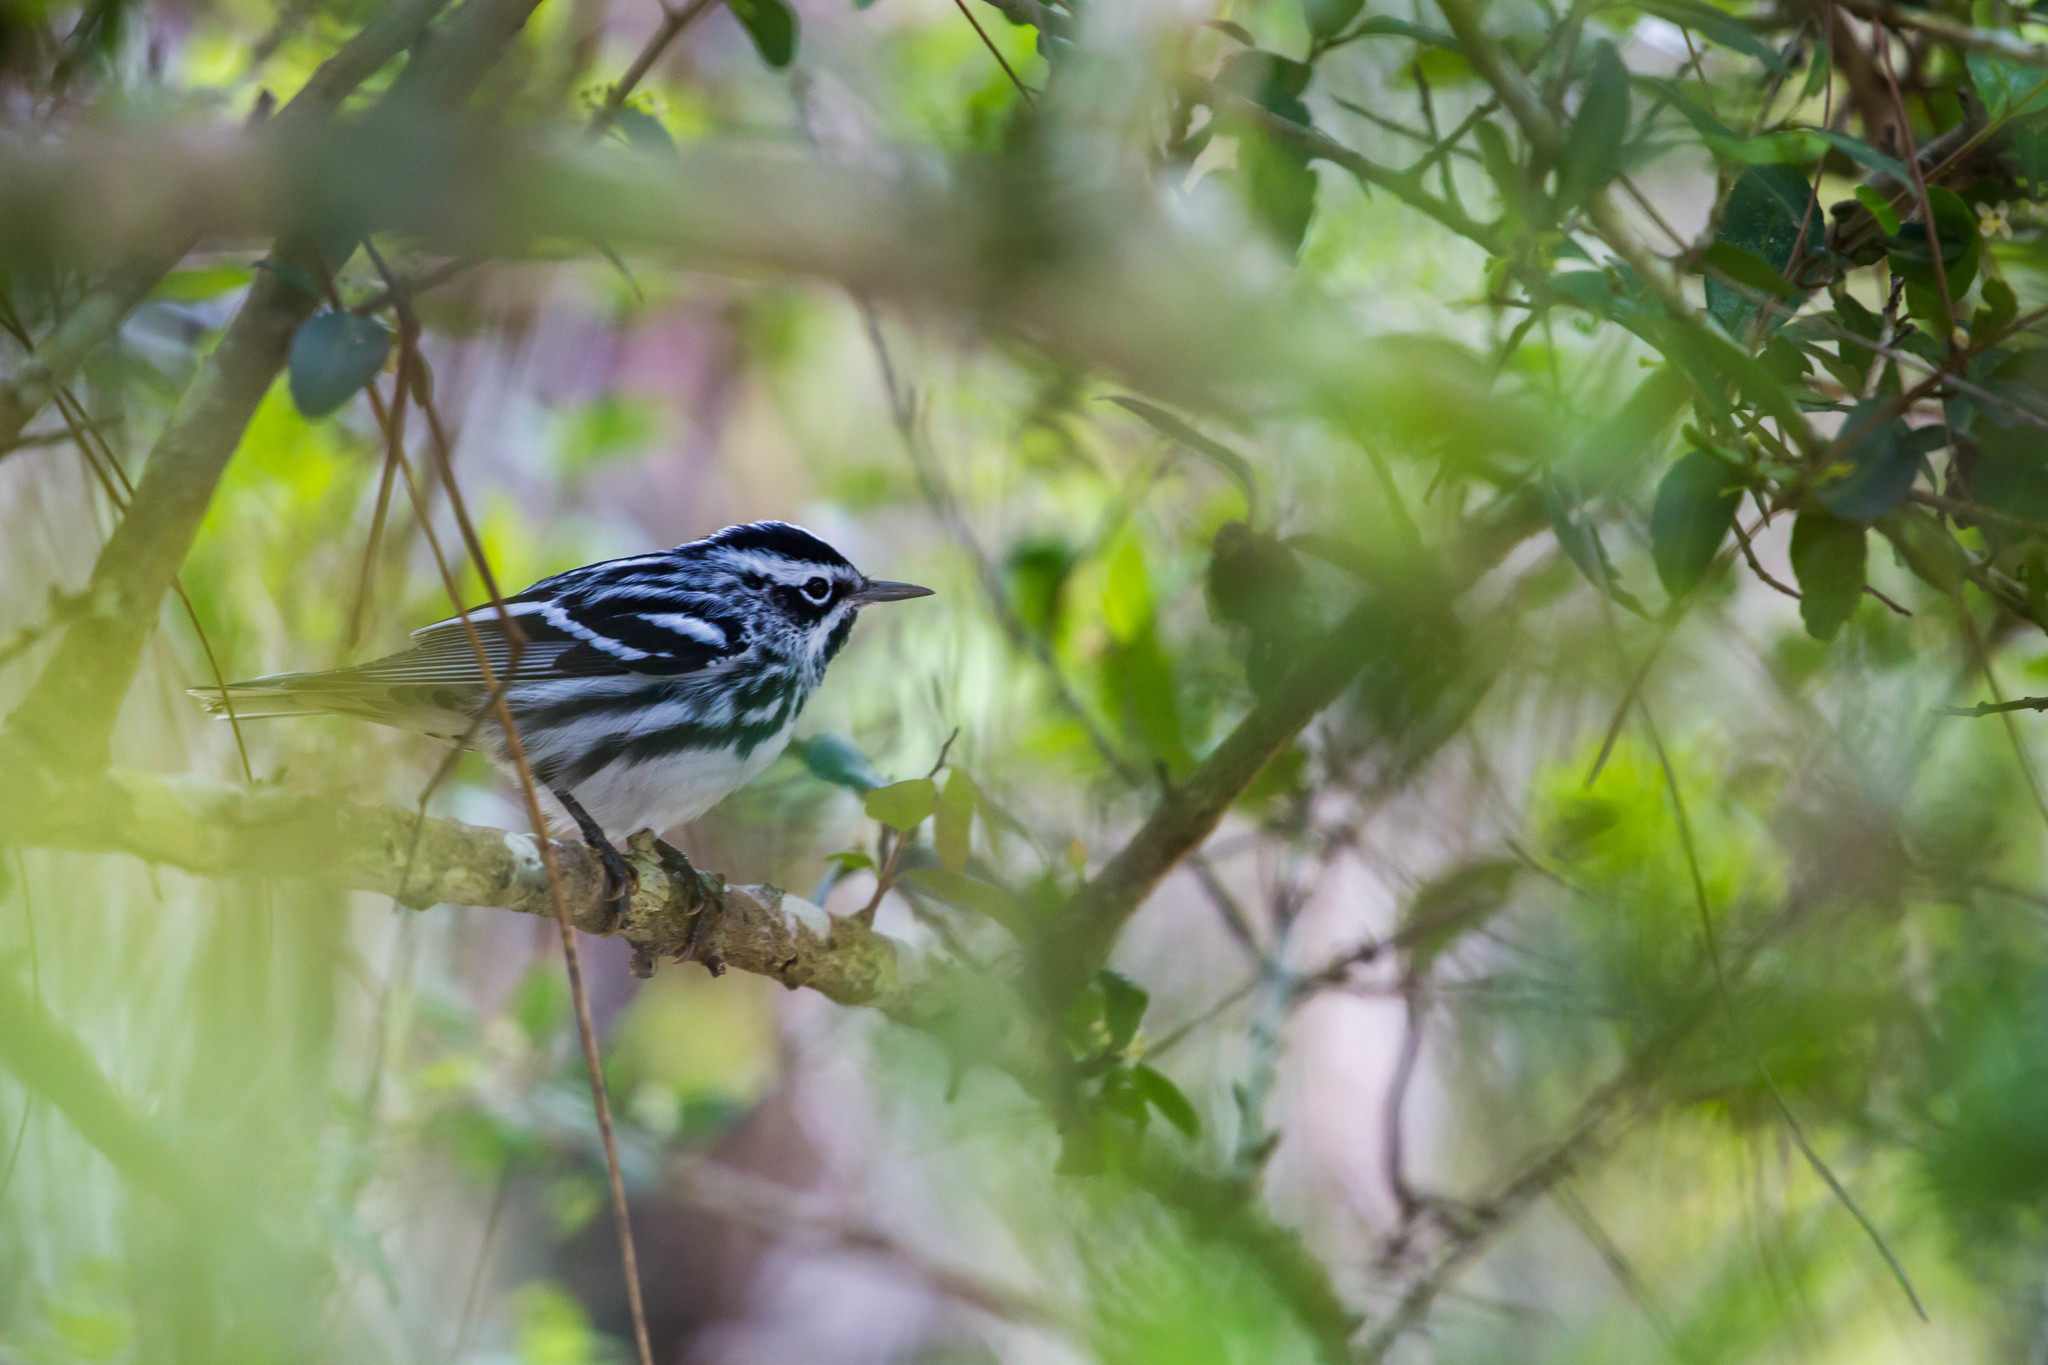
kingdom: Animalia
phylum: Chordata
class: Aves
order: Passeriformes
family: Parulidae
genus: Mniotilta
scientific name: Mniotilta varia
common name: Black-and-white warbler
